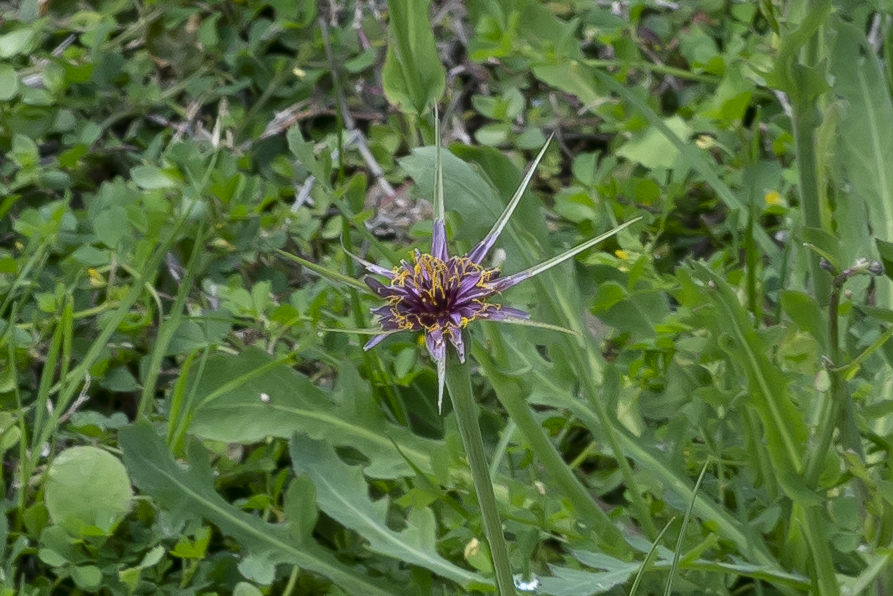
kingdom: Plantae
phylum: Tracheophyta
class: Magnoliopsida
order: Asterales
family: Asteraceae
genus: Tragopogon
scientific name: Tragopogon coelesyriacus
